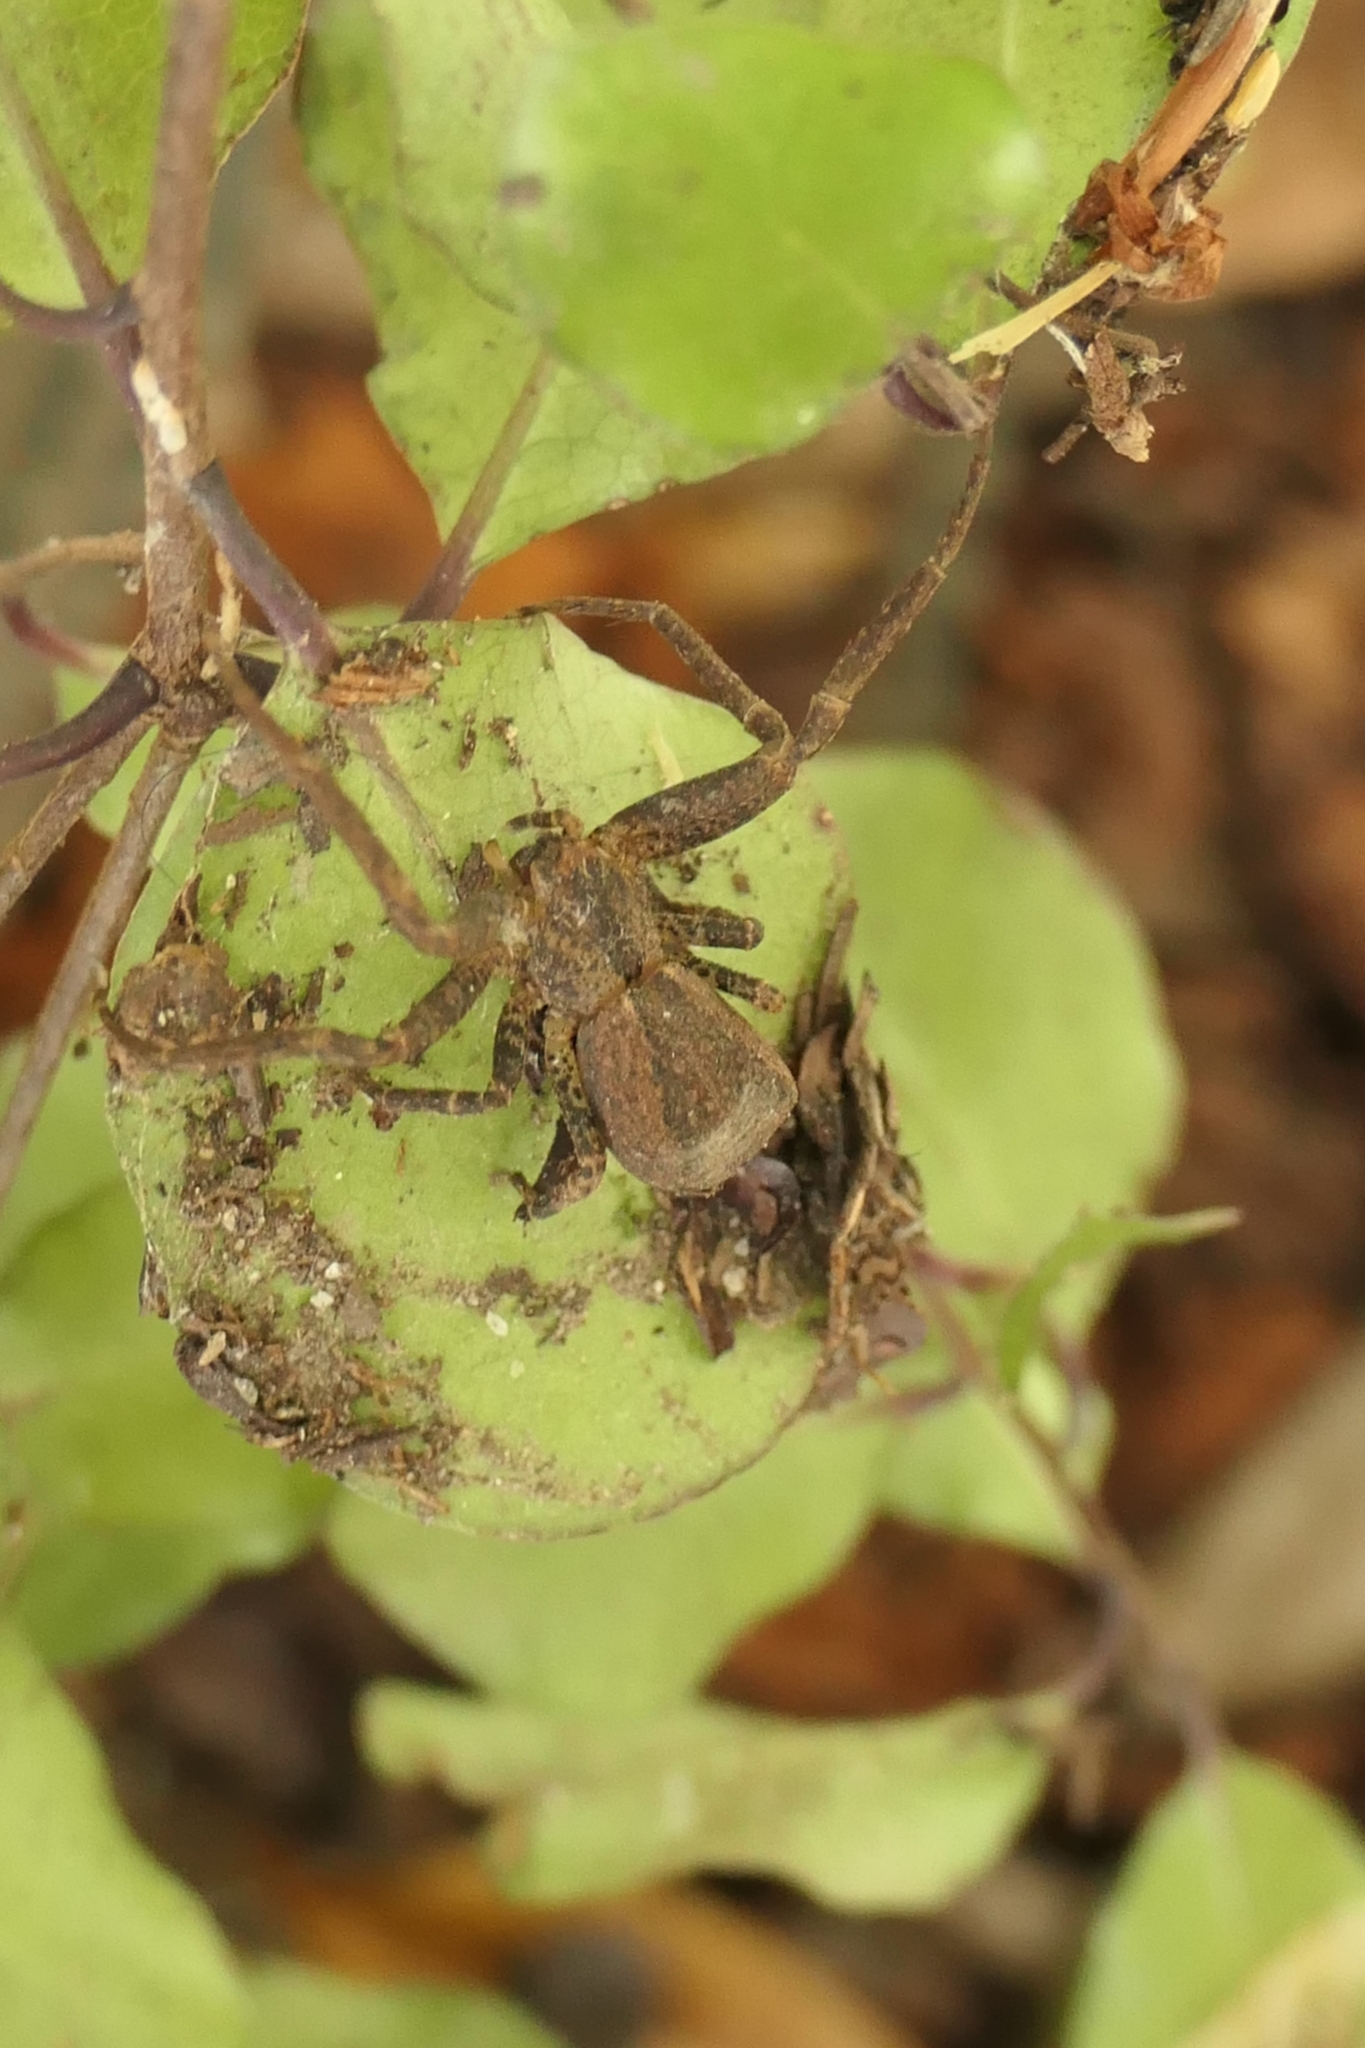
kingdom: Animalia
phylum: Arthropoda
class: Arachnida
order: Araneae
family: Thomisidae
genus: Sidymella
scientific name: Sidymella angularis
